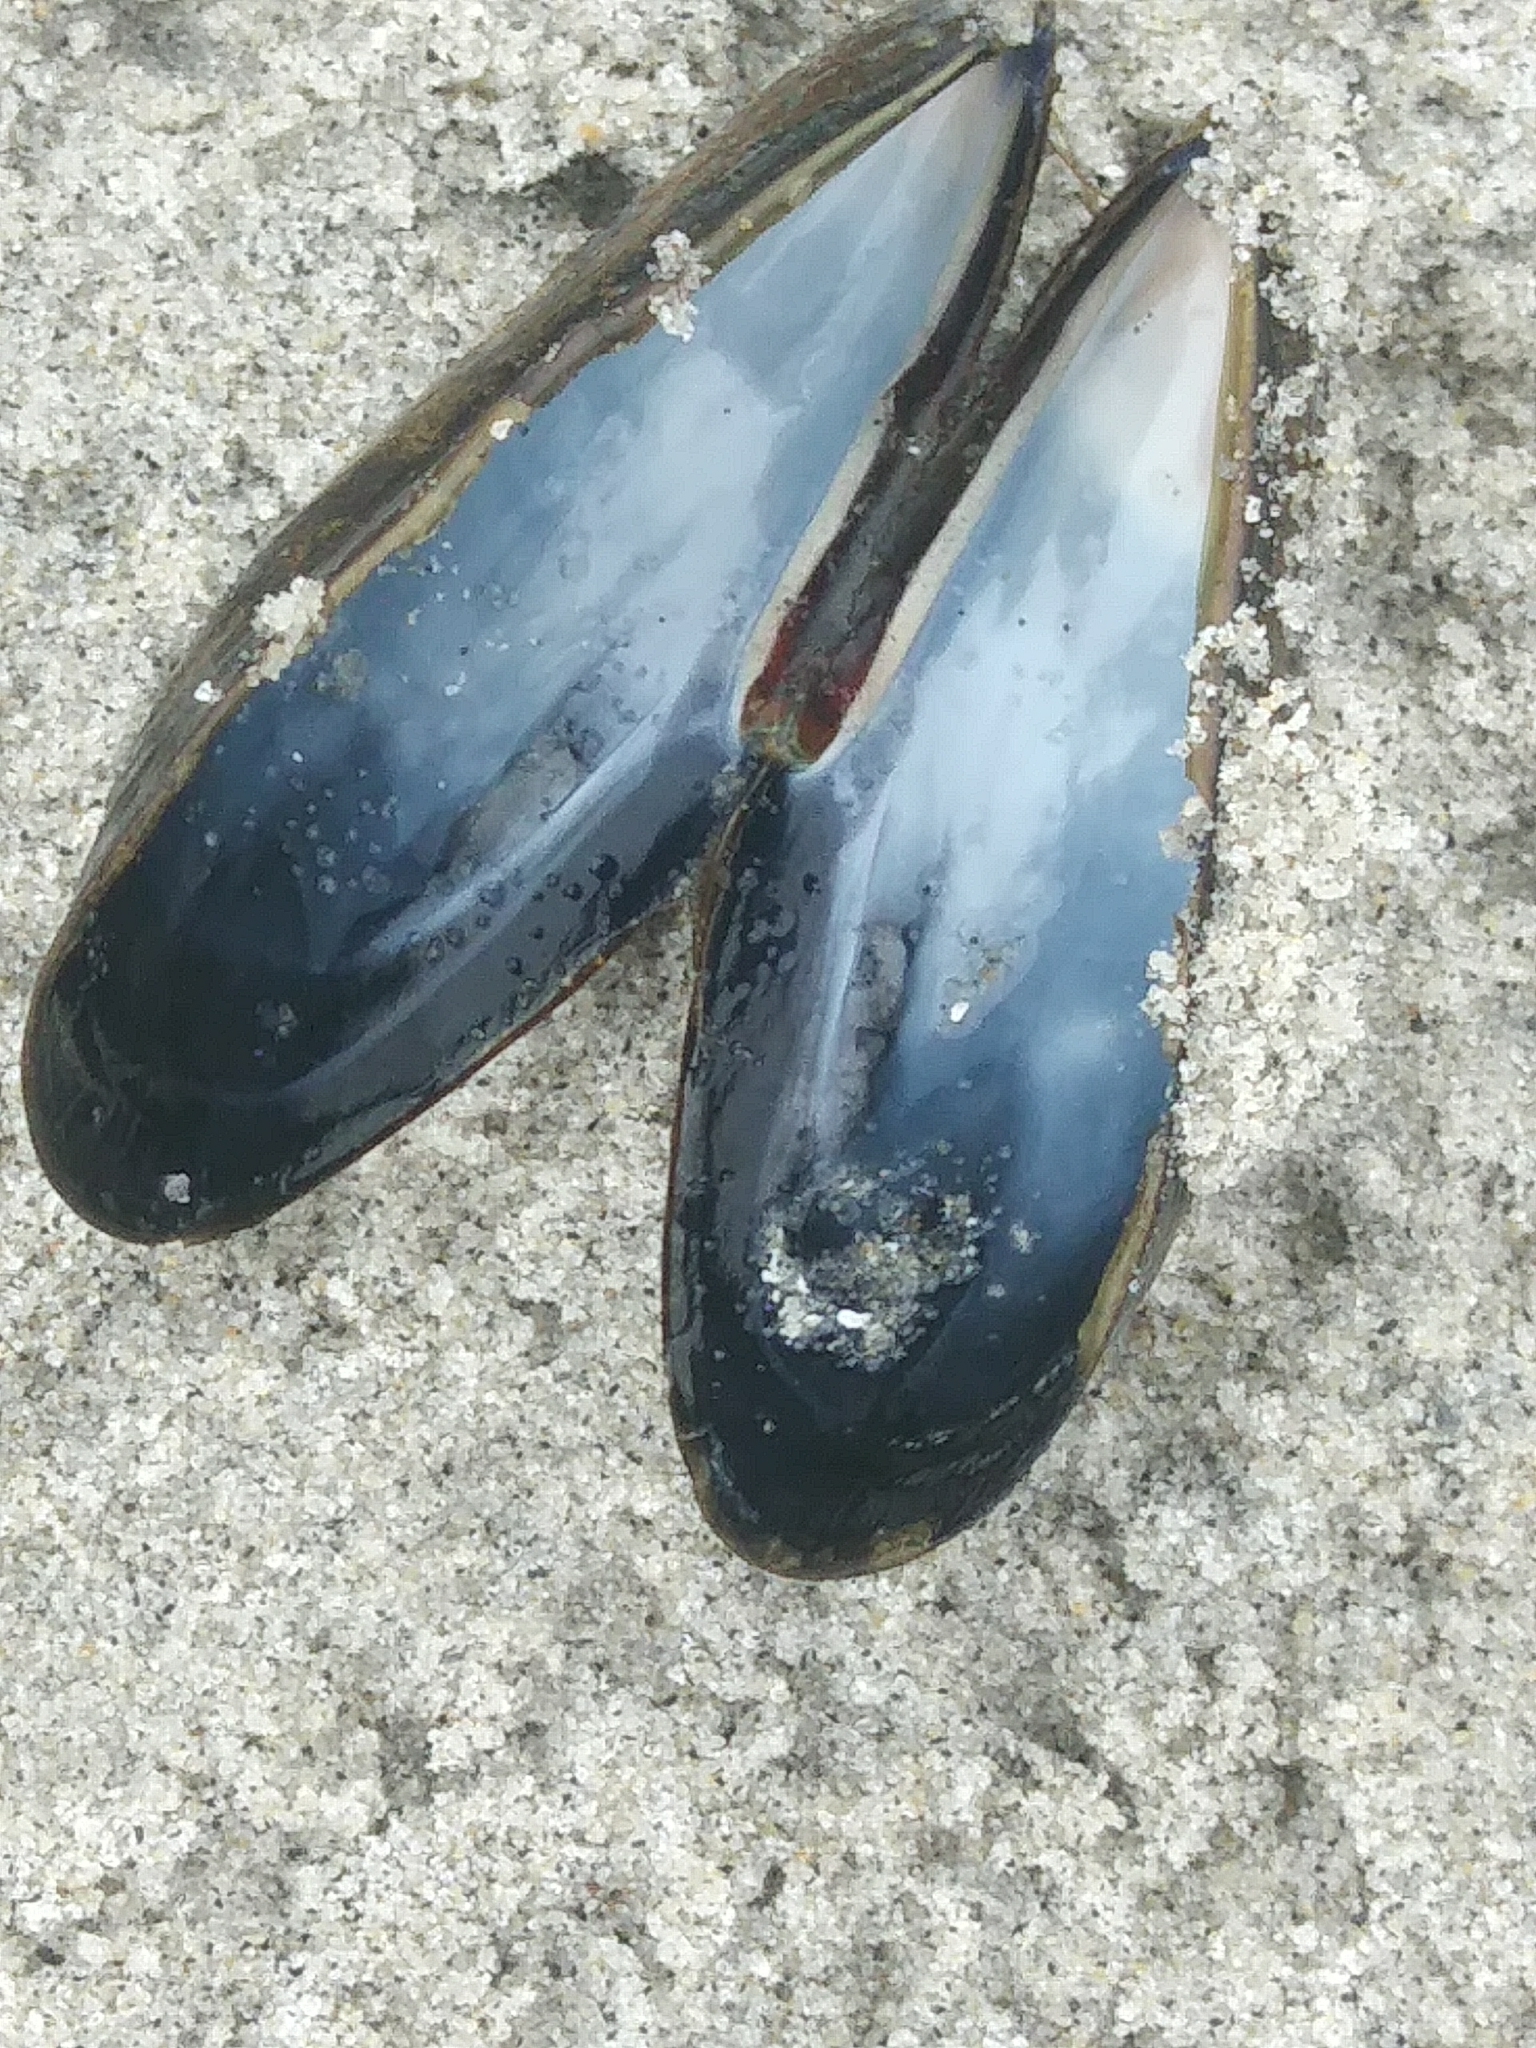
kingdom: Animalia
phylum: Mollusca
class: Bivalvia
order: Mytilida
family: Mytilidae
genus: Mytilus
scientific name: Mytilus edulis
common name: Blue mussel
